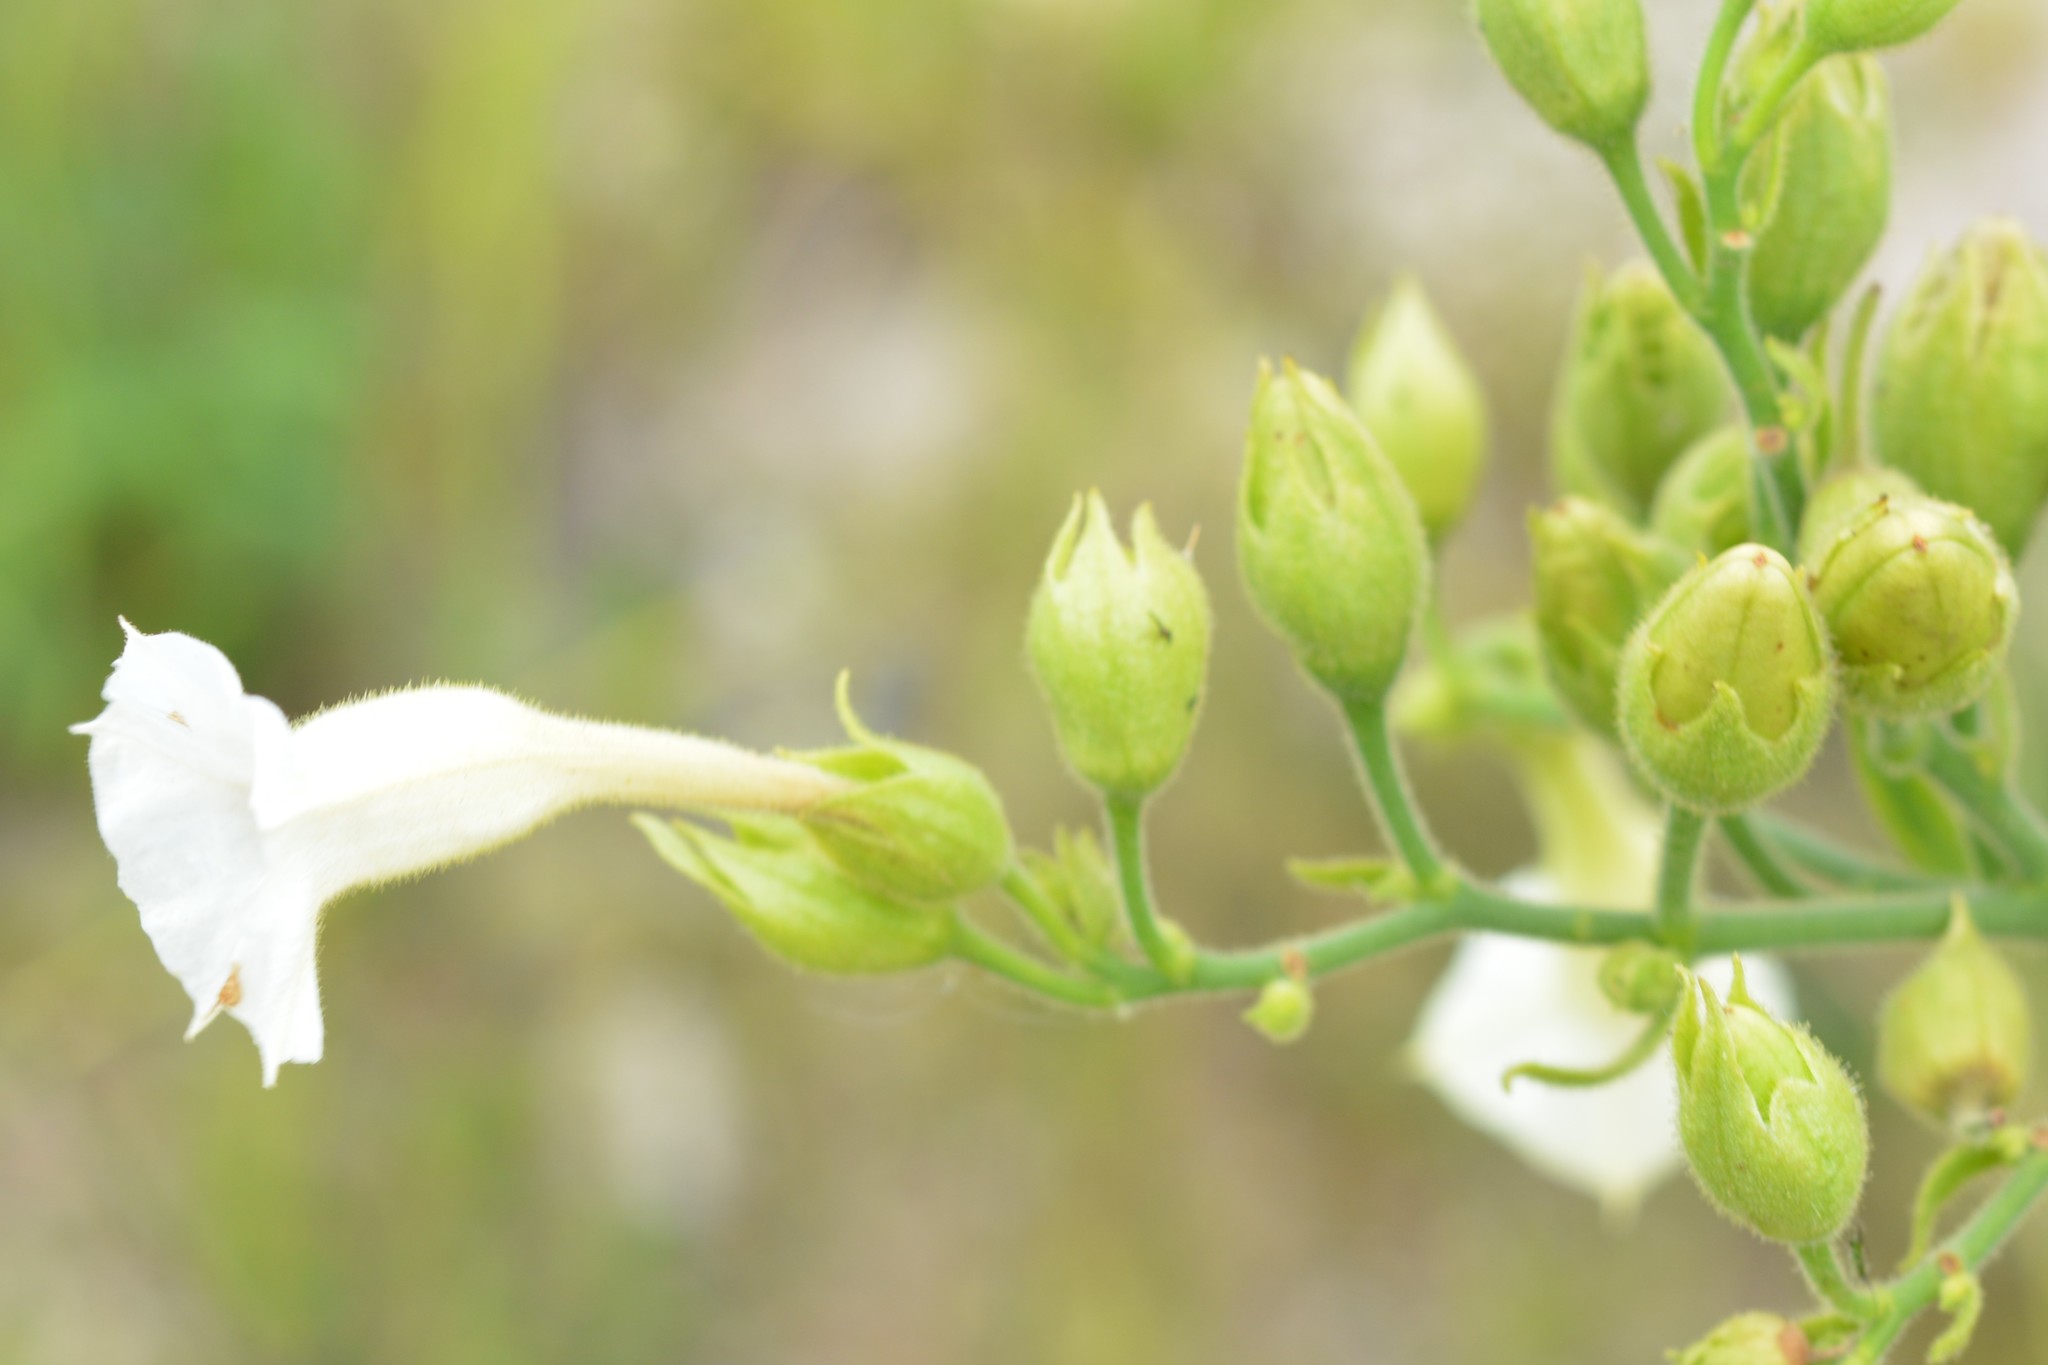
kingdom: Plantae
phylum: Tracheophyta
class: Magnoliopsida
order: Solanales
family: Solanaceae
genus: Nicotiana
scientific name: Nicotiana tabacum
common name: Tobacco
